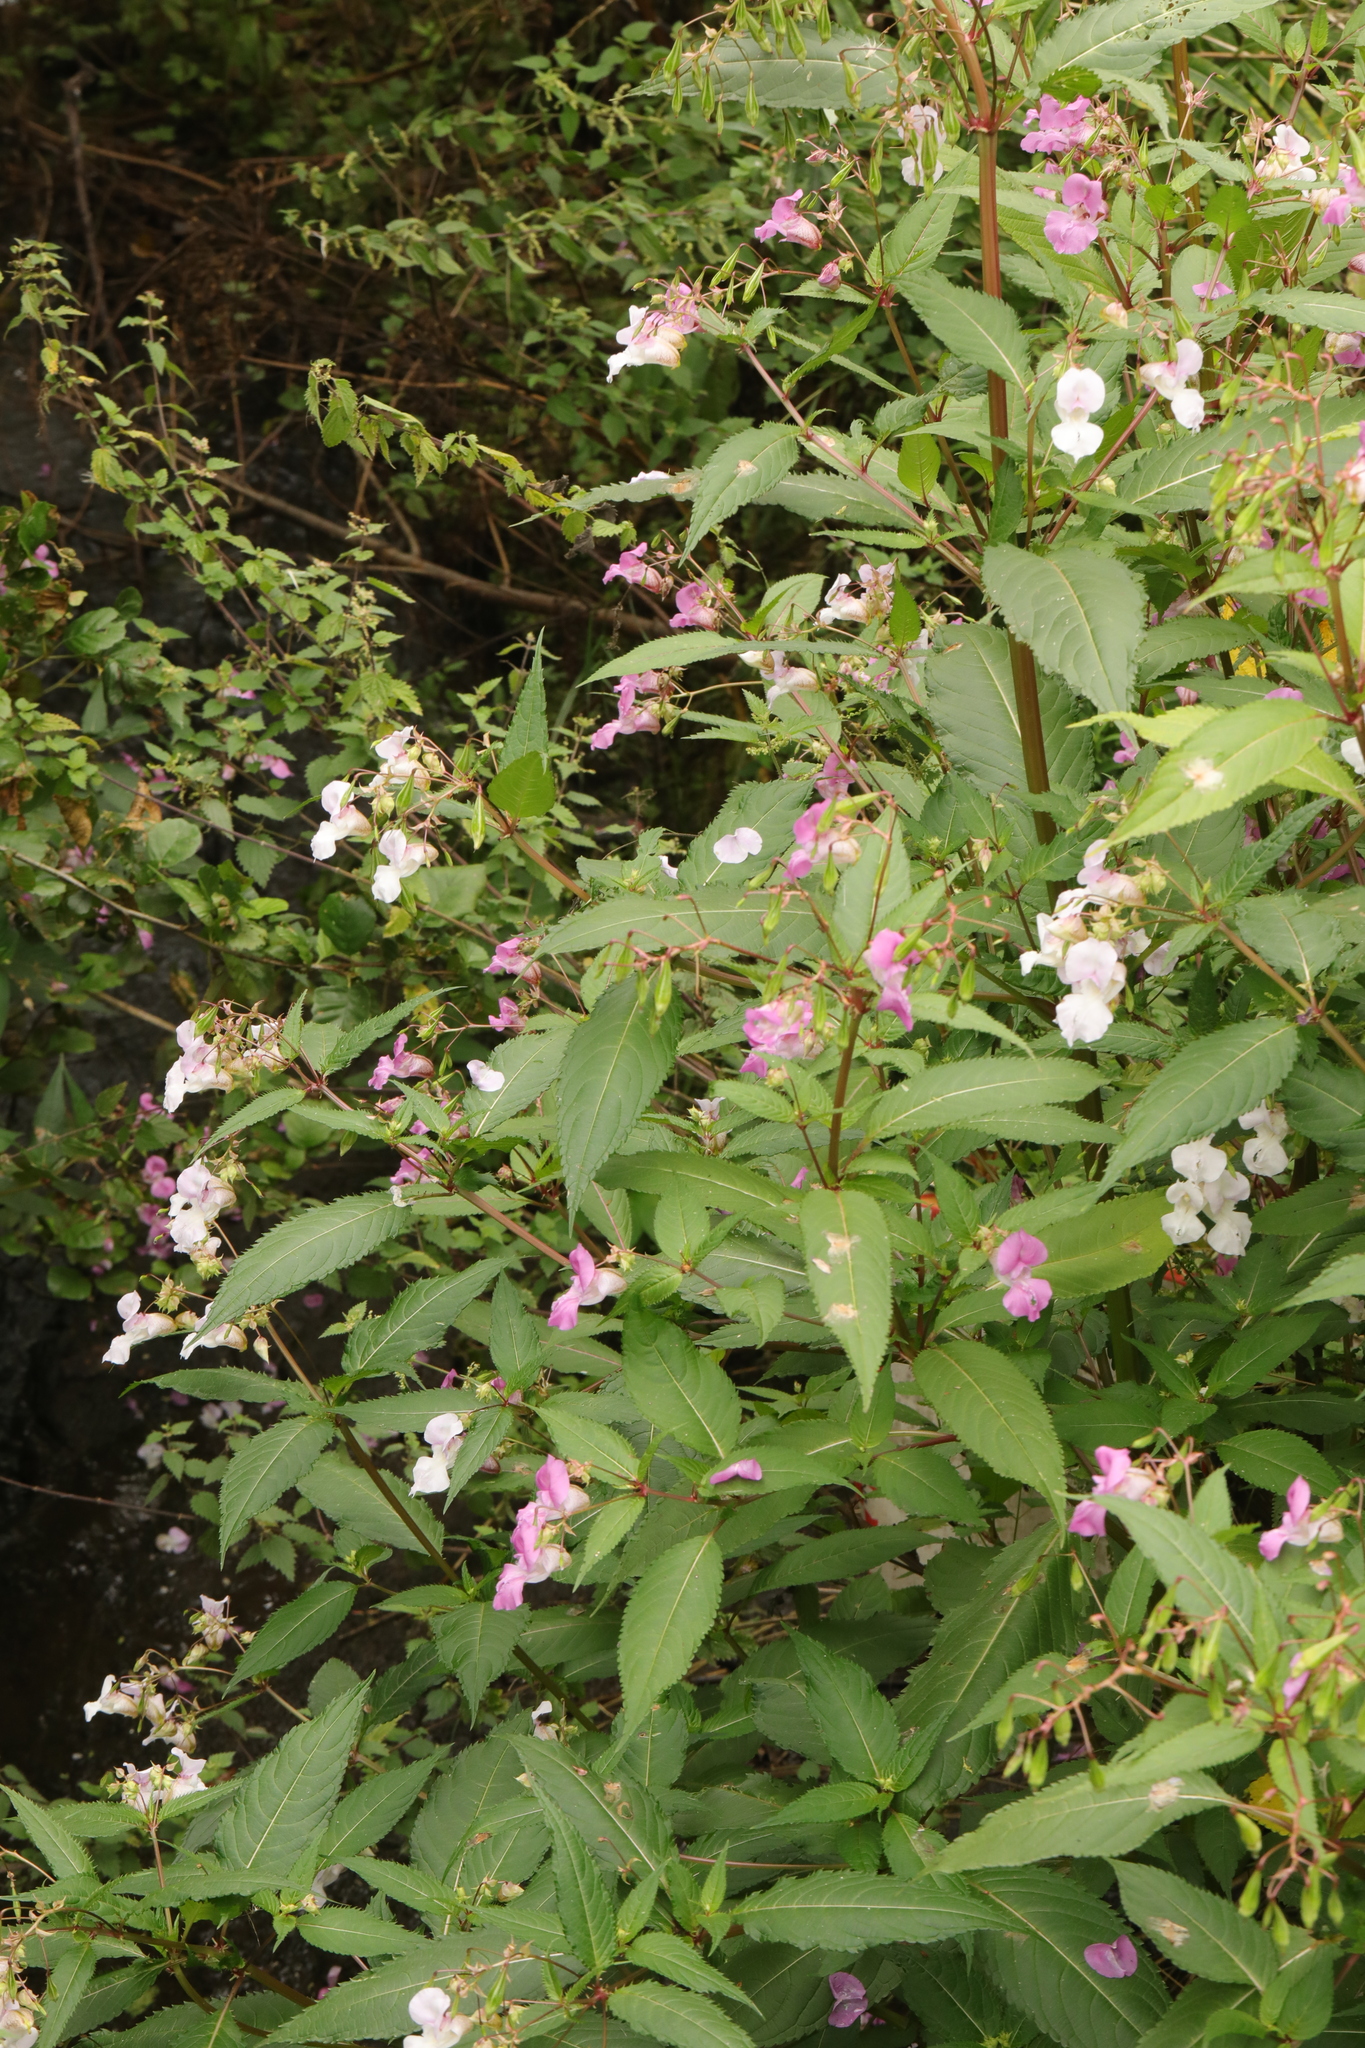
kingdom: Plantae
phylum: Tracheophyta
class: Magnoliopsida
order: Ericales
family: Balsaminaceae
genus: Impatiens
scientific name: Impatiens glandulifera
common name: Himalayan balsam
